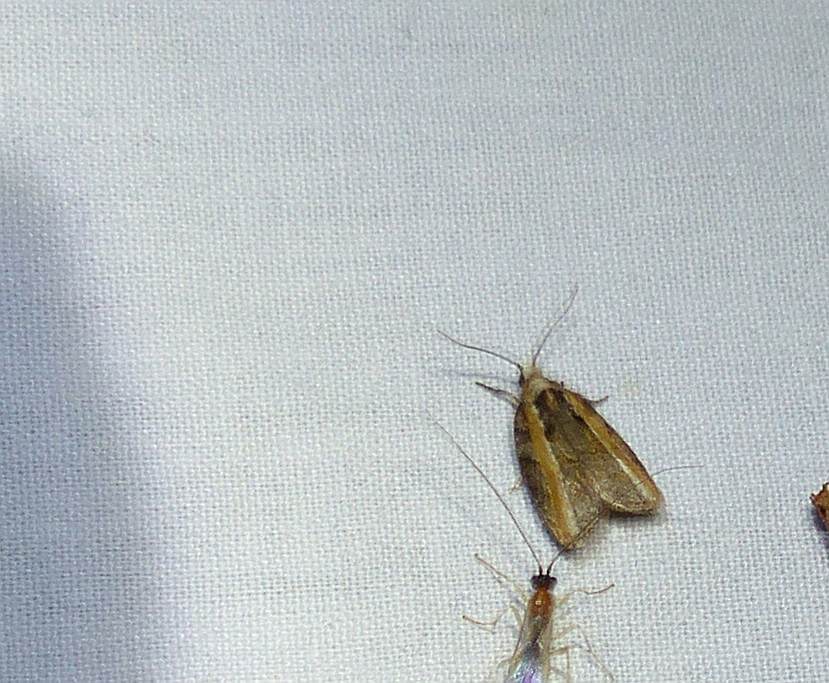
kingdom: Animalia
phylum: Arthropoda
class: Insecta
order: Lepidoptera
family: Tortricidae
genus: Acleris
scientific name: Acleris variana
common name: Eastern black-headed budworm moth
